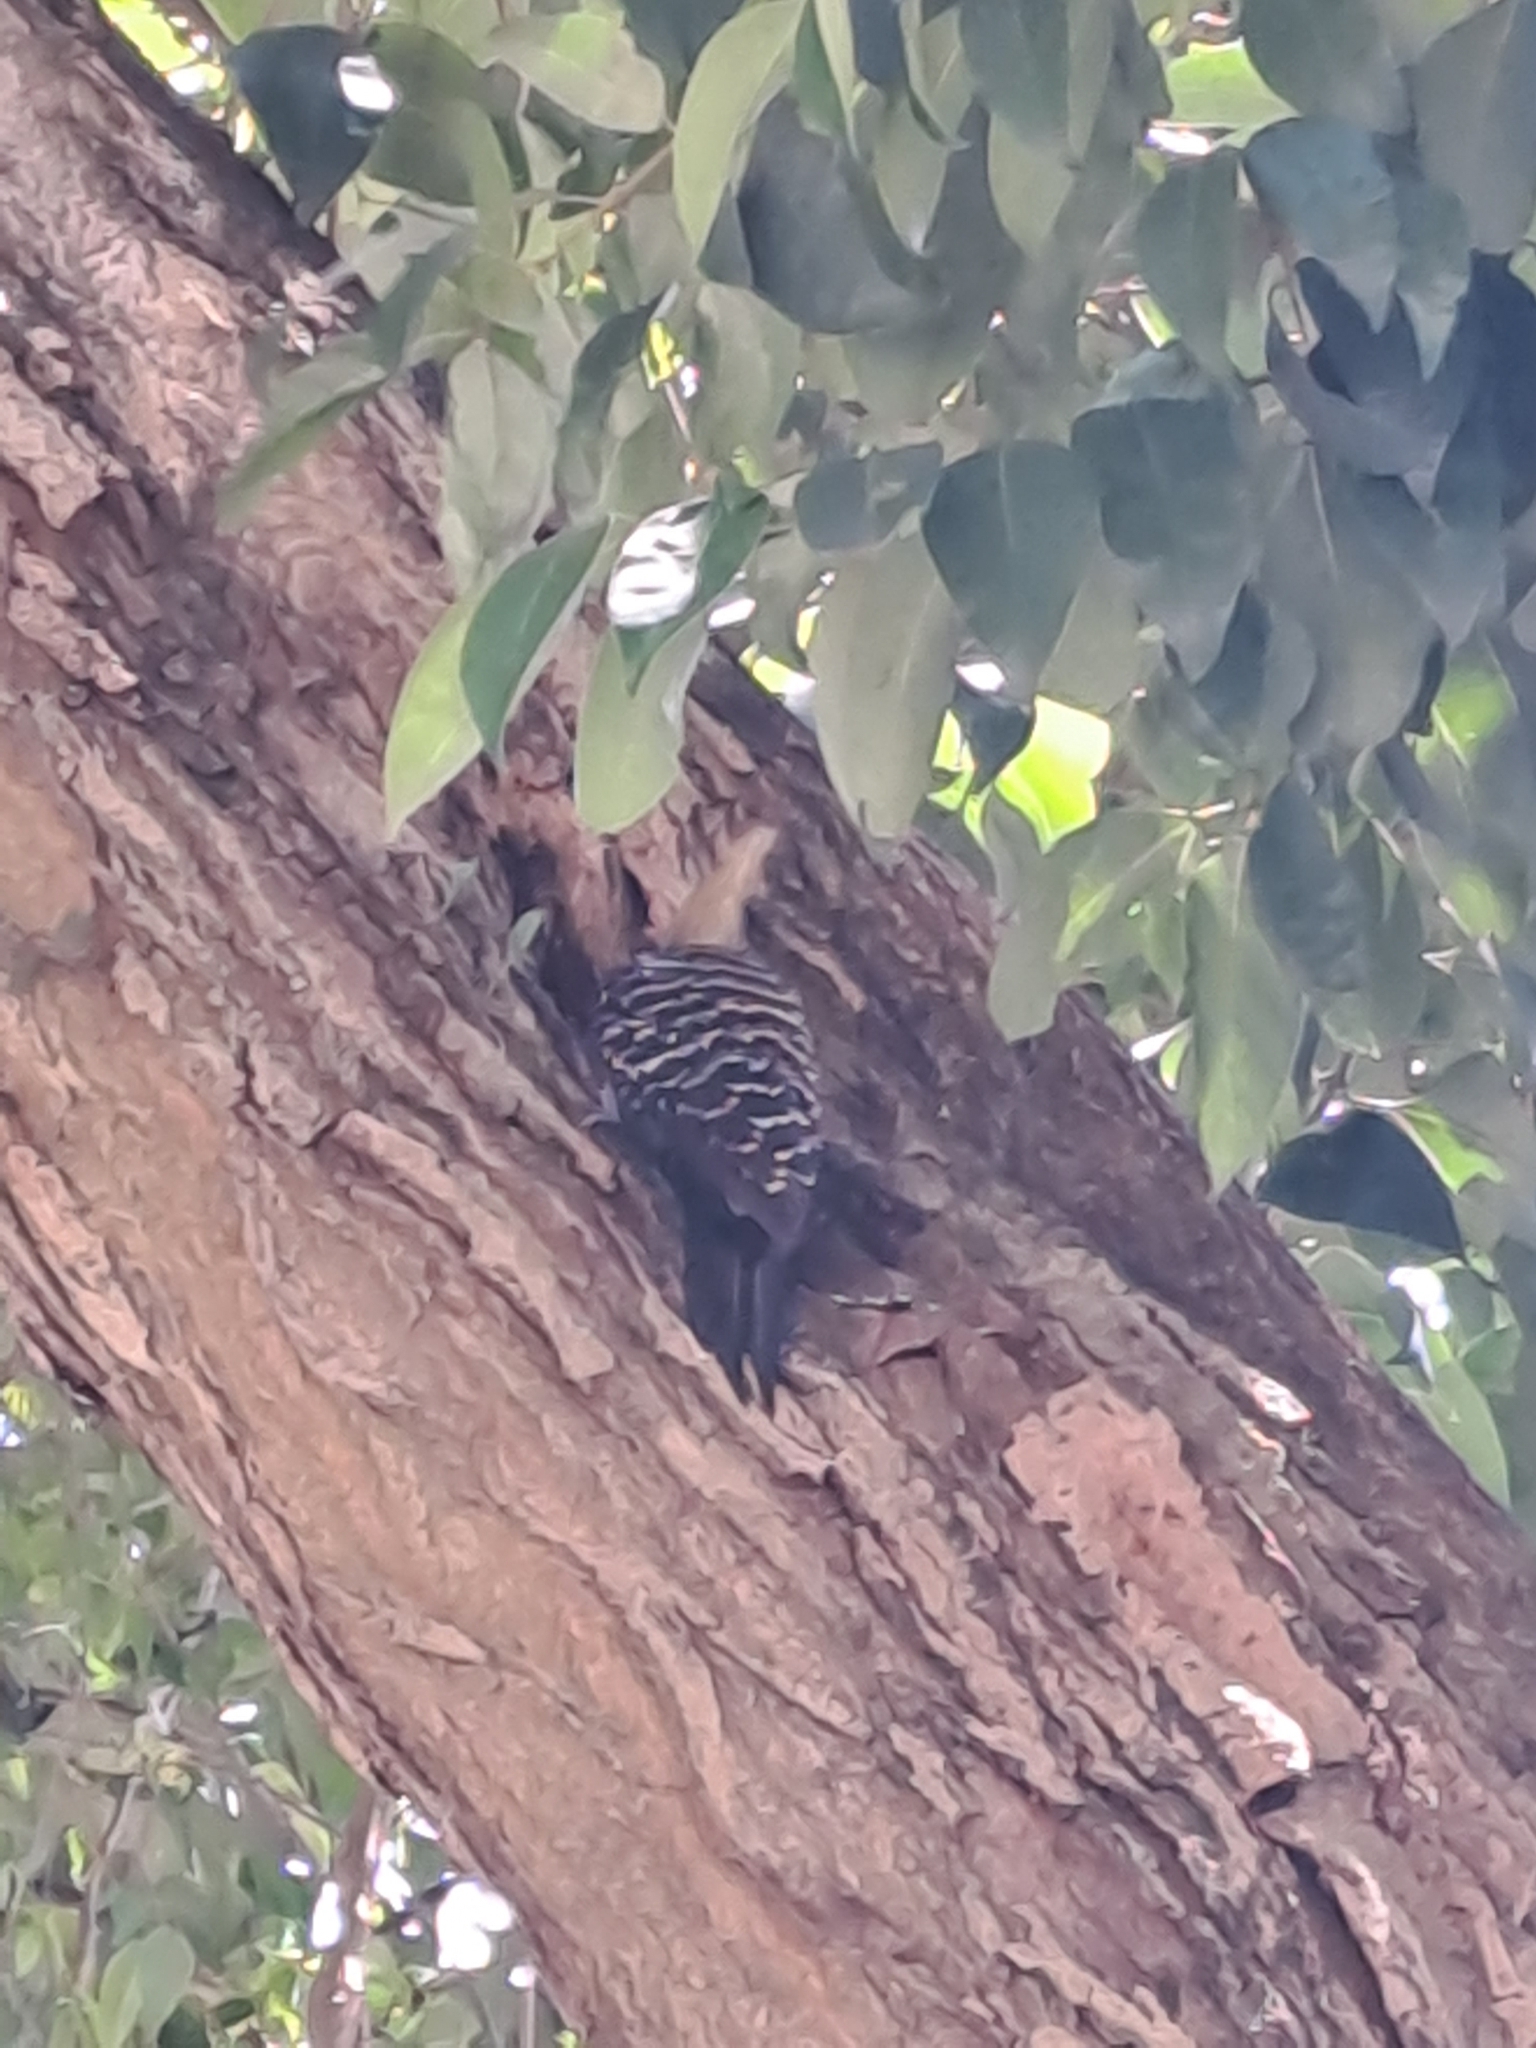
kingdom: Animalia
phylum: Chordata
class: Aves
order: Piciformes
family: Picidae
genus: Celeus
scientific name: Celeus flavescens
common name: Blond-crested woodpecker
